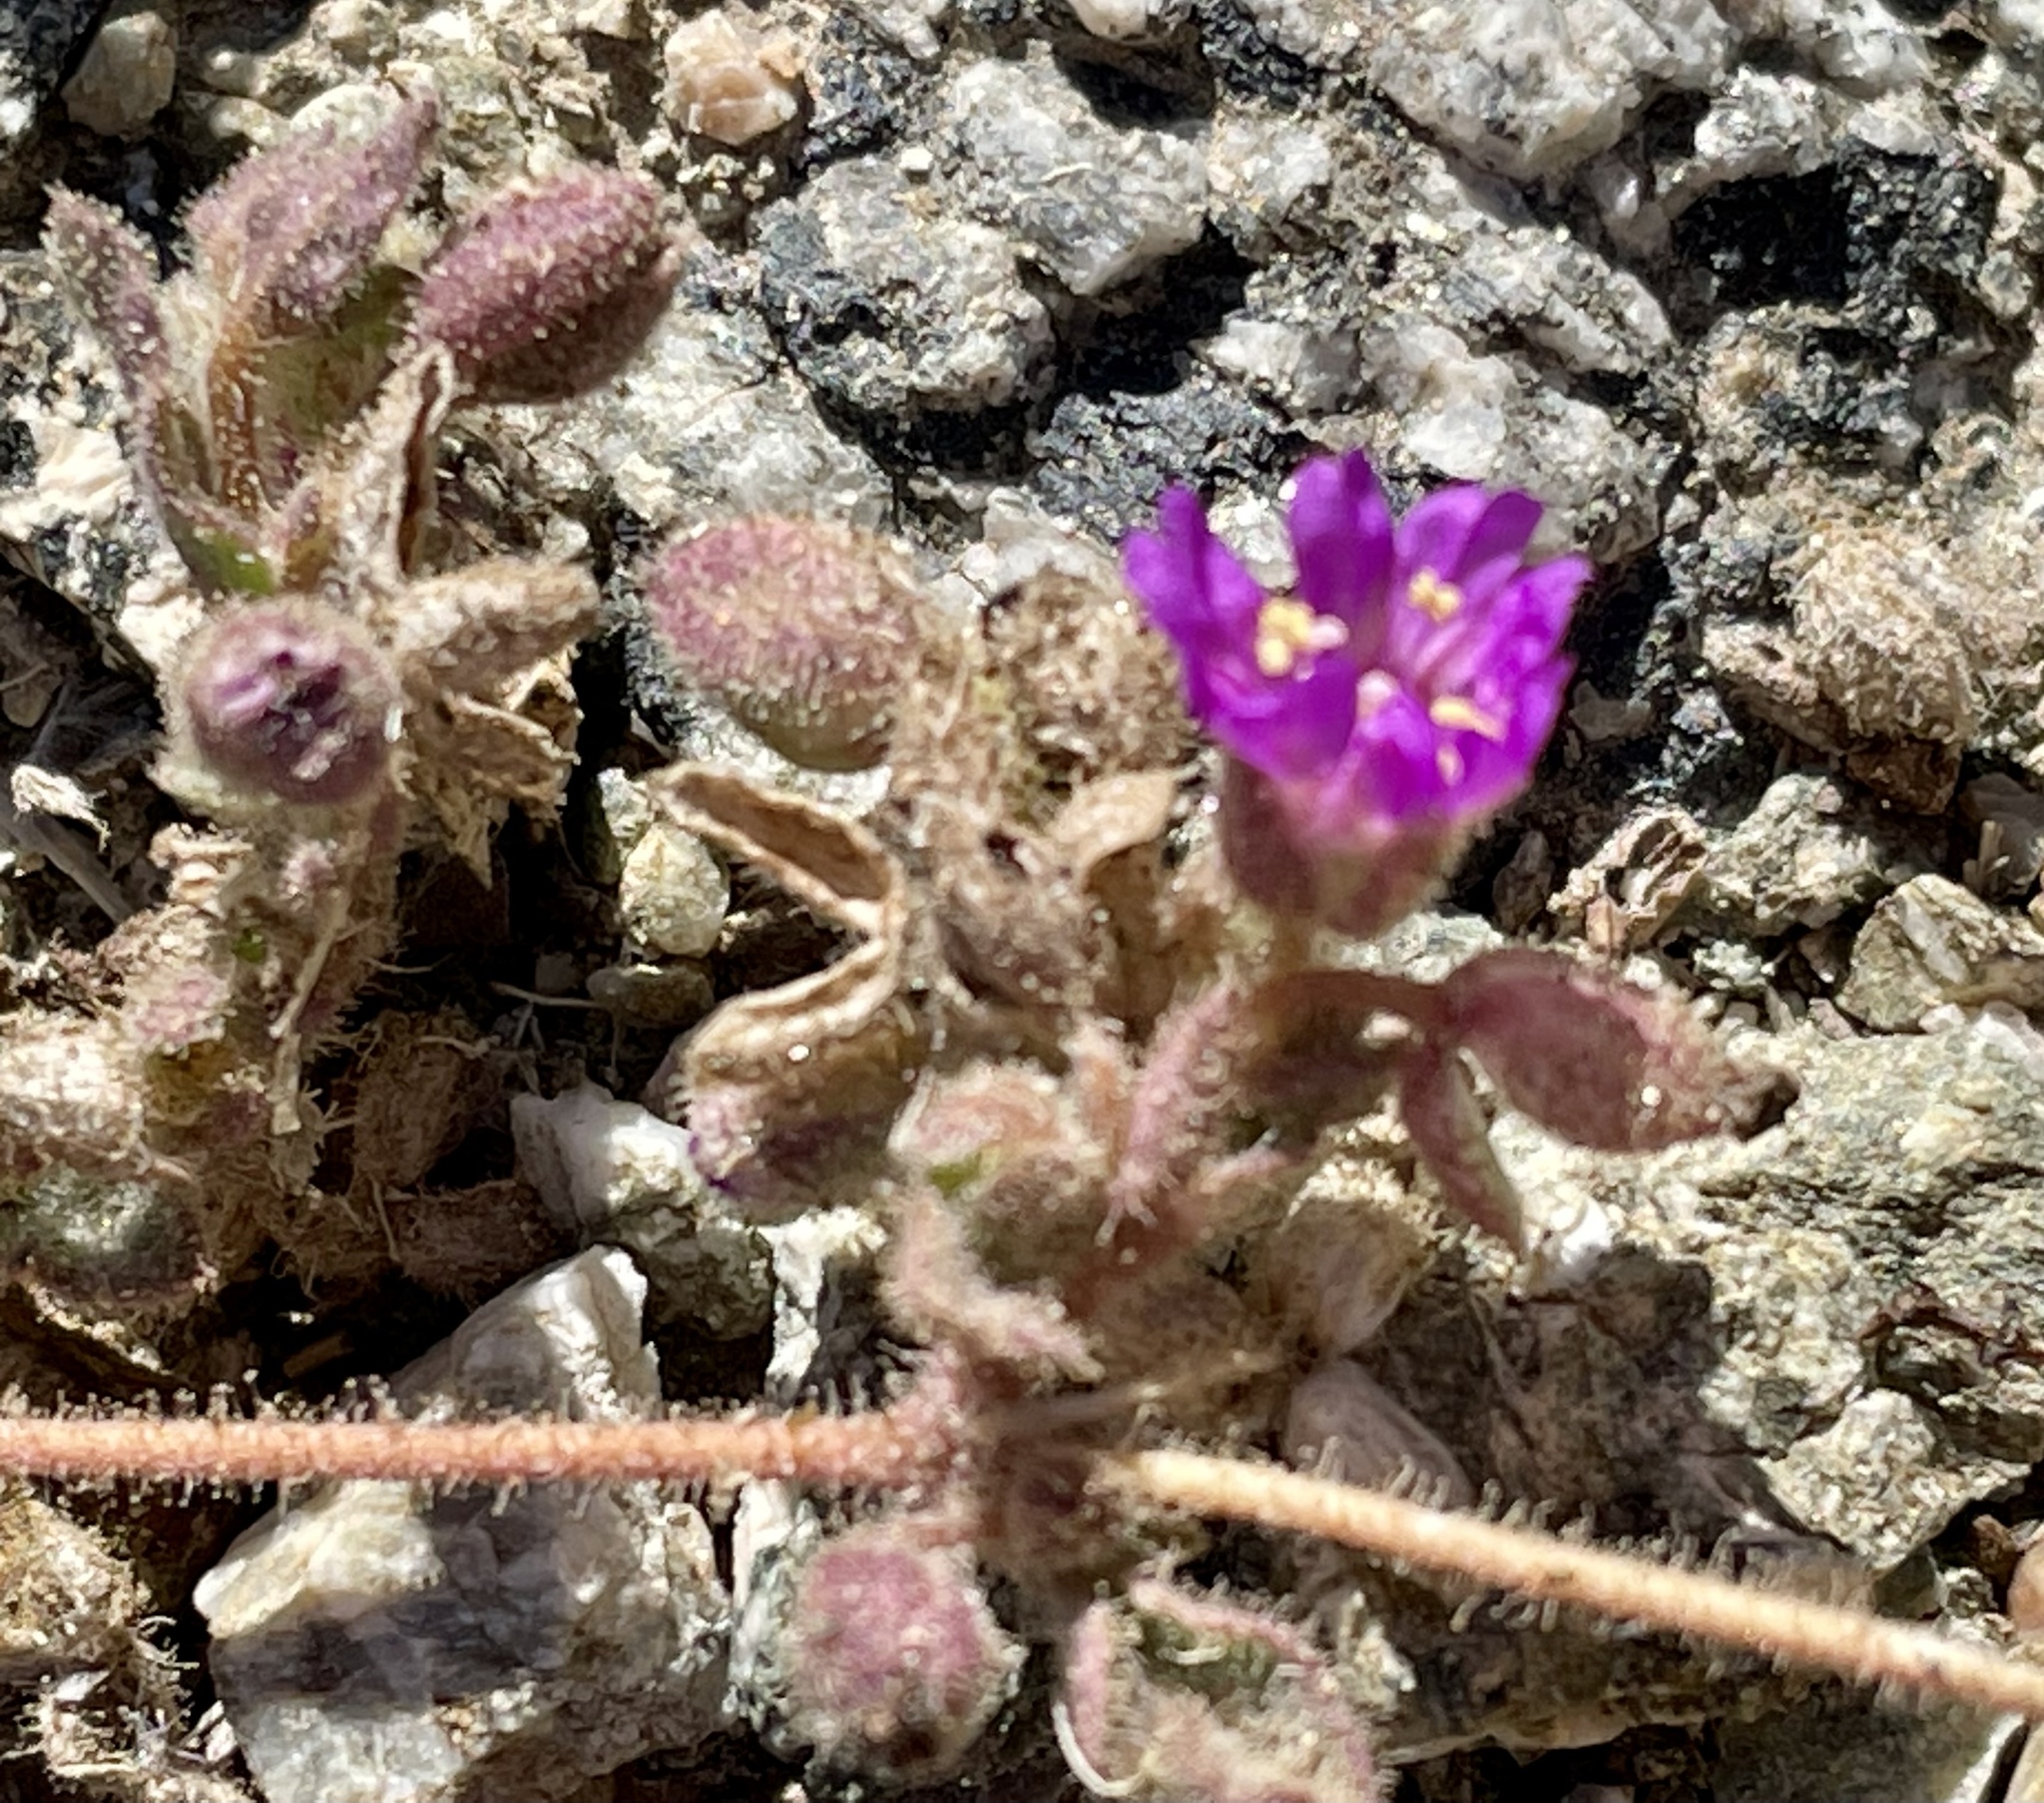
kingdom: Plantae
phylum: Tracheophyta
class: Magnoliopsida
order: Caryophyllales
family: Nyctaginaceae
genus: Allionia
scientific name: Allionia incarnata
